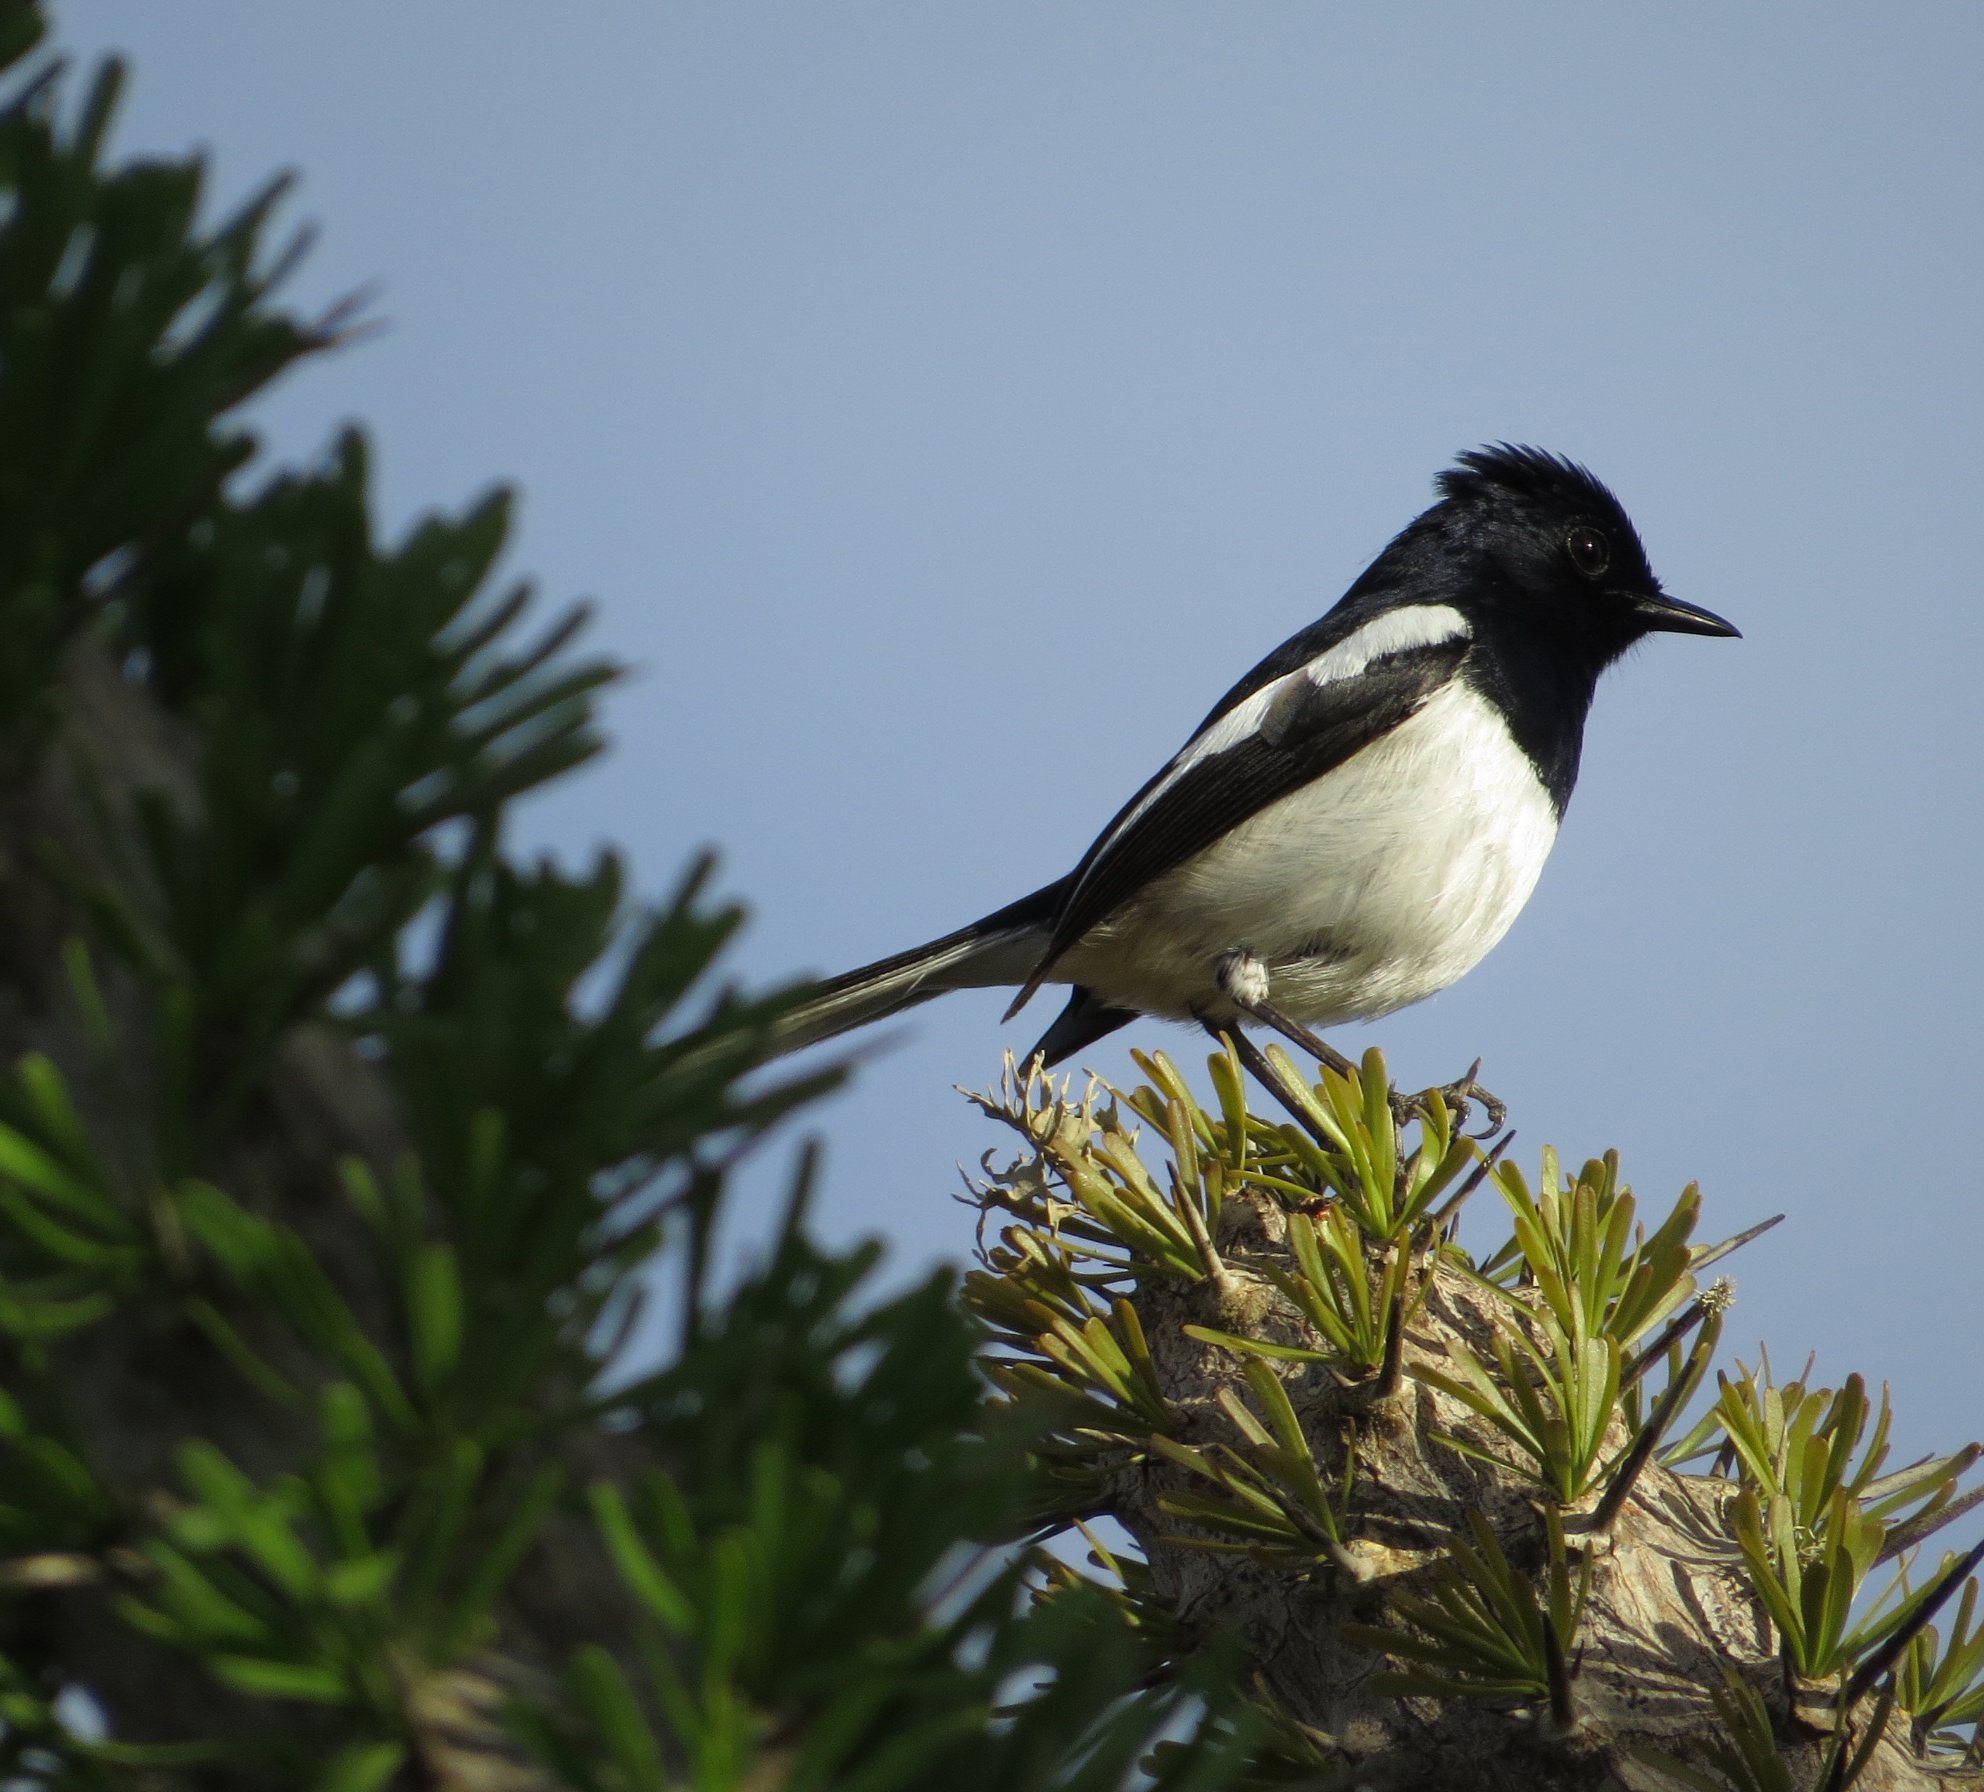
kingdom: Animalia
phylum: Chordata
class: Aves
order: Passeriformes
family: Muscicapidae
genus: Copsychus
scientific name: Copsychus albospecularis
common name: Madagascar magpie-robin
